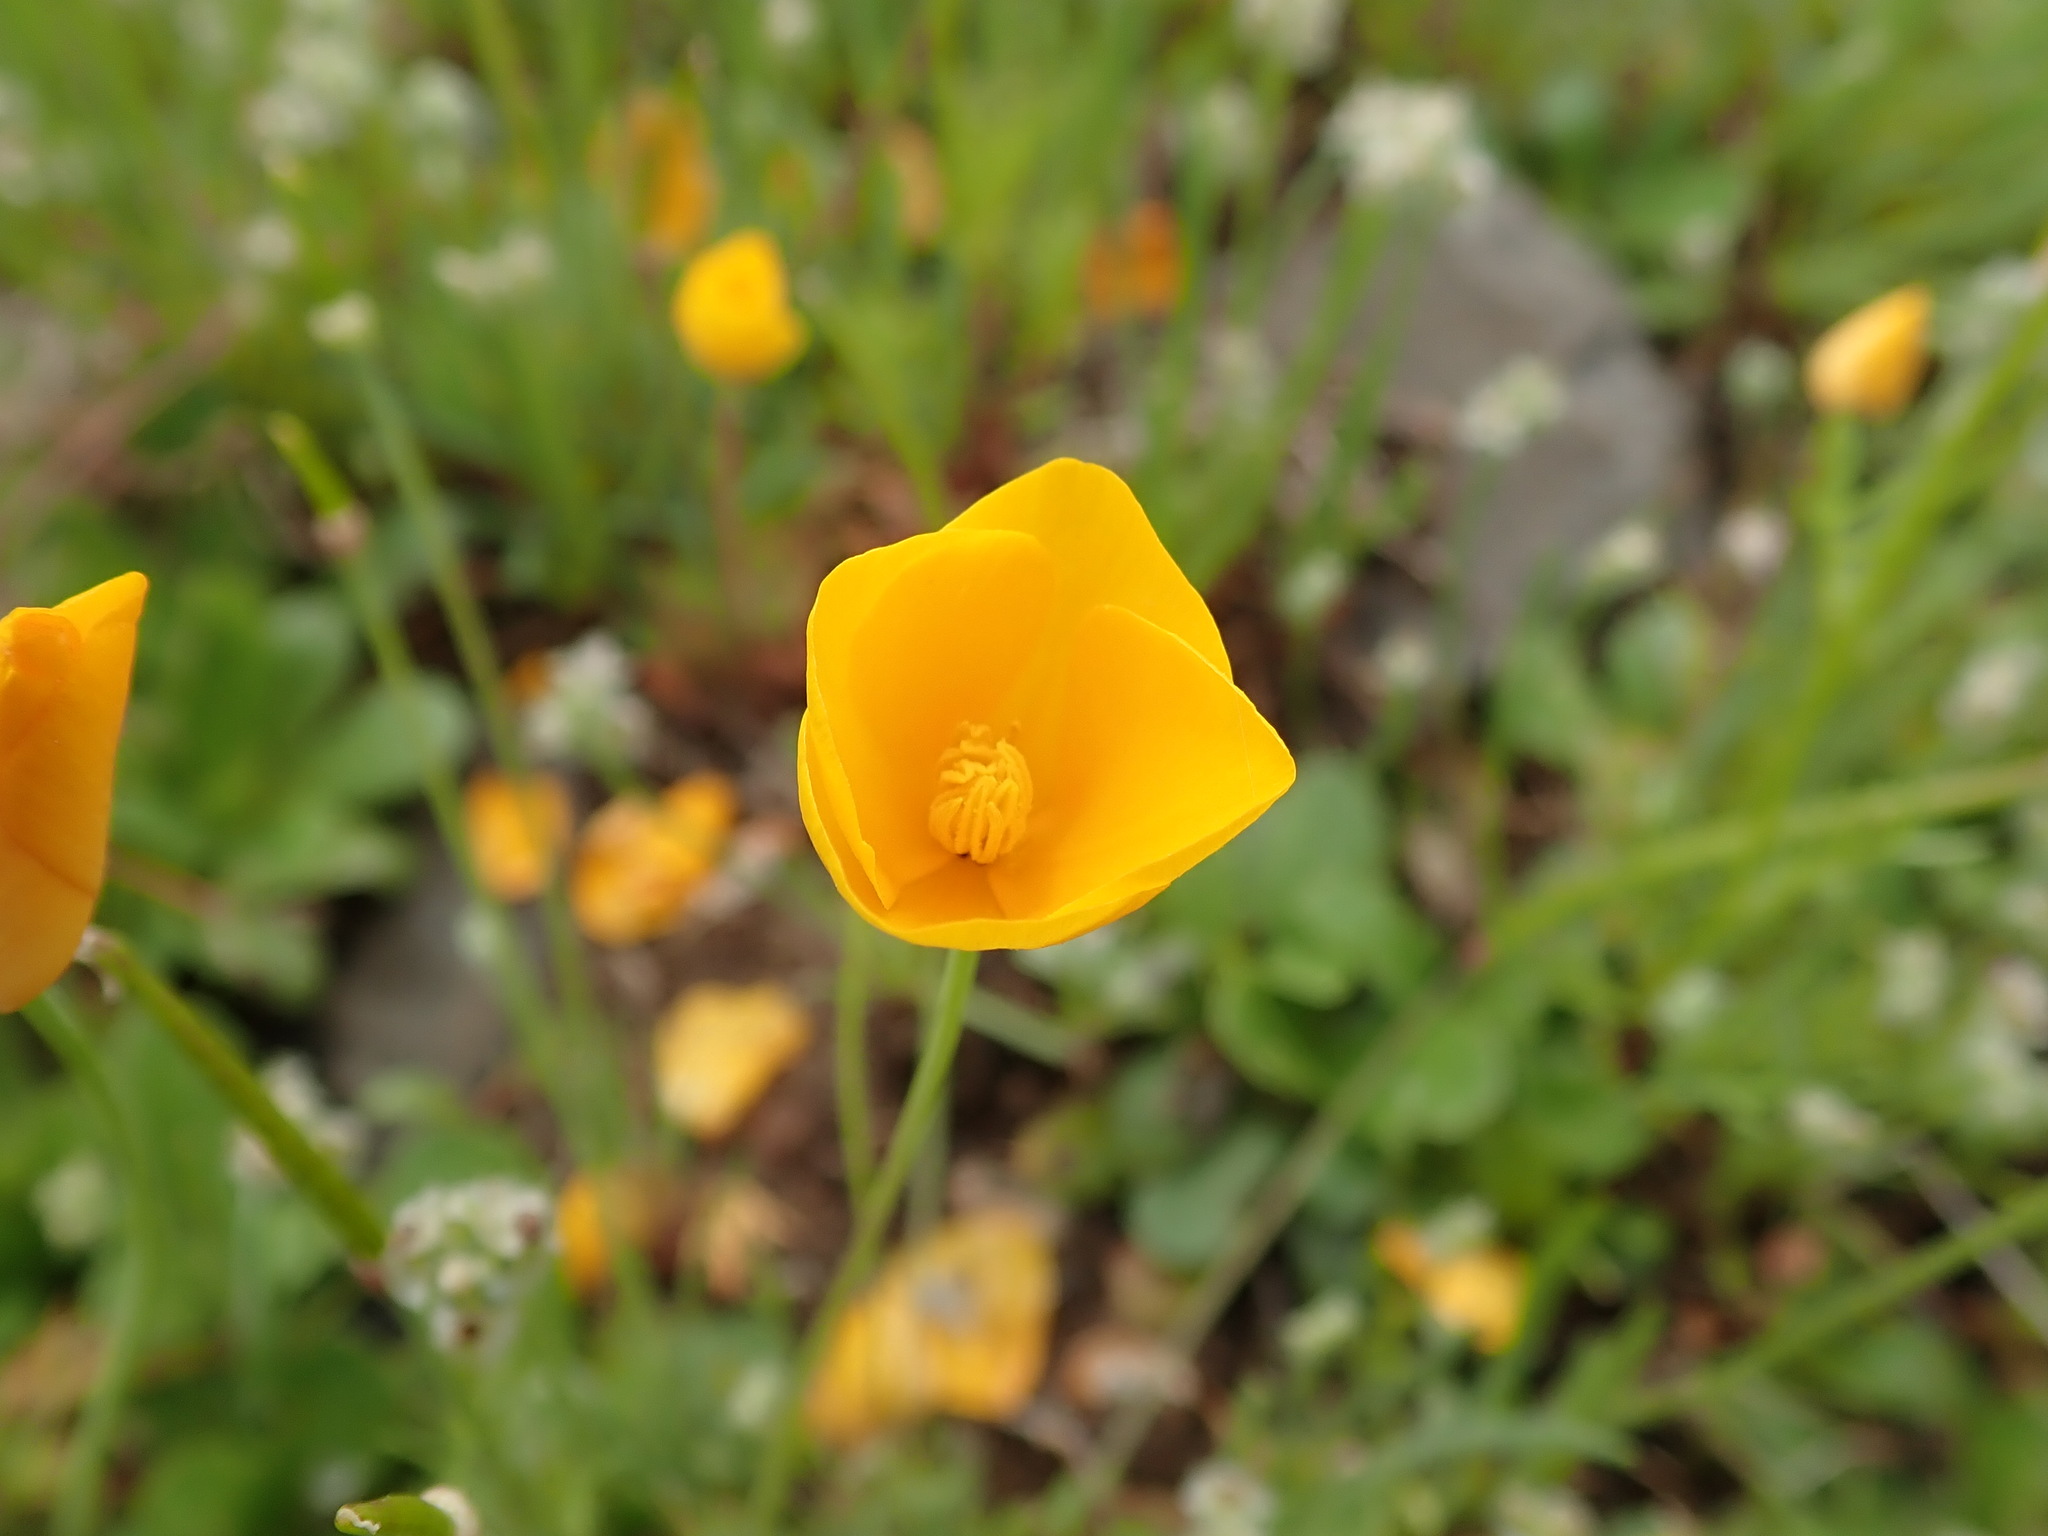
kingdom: Plantae
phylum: Tracheophyta
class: Magnoliopsida
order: Ranunculales
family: Papaveraceae
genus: Eschscholzia
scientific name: Eschscholzia lobbii
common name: Frying-pans
